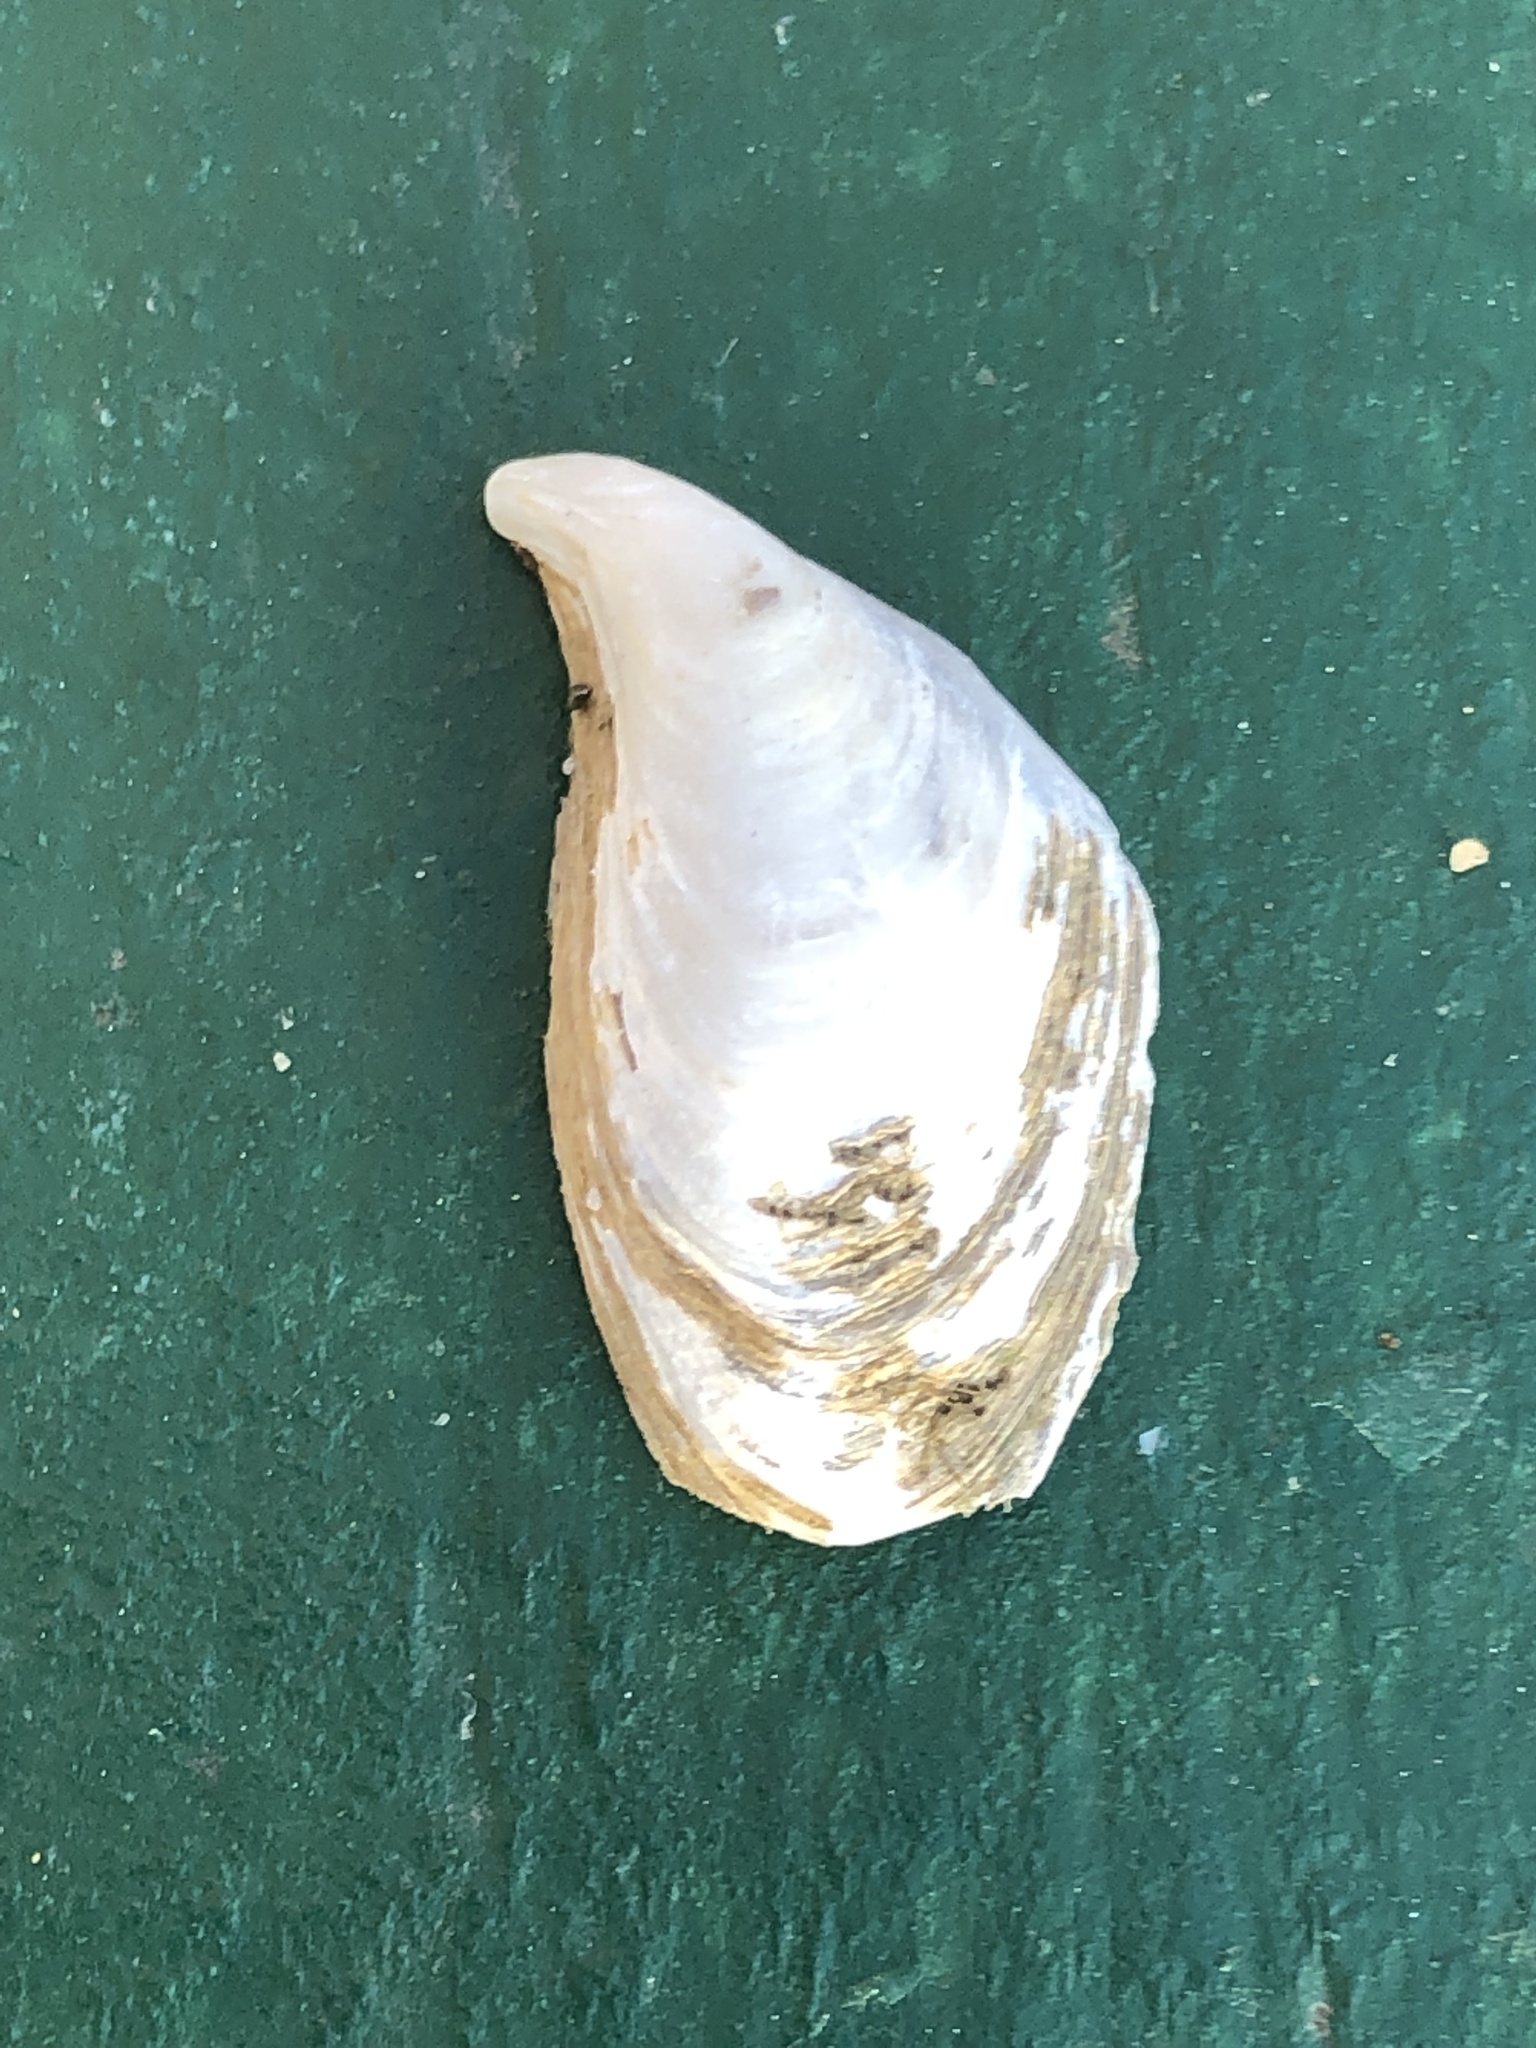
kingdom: Animalia
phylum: Mollusca
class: Bivalvia
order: Myida
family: Dreissenidae
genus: Dreissena
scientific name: Dreissena bugensis
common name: Quagga mussel
